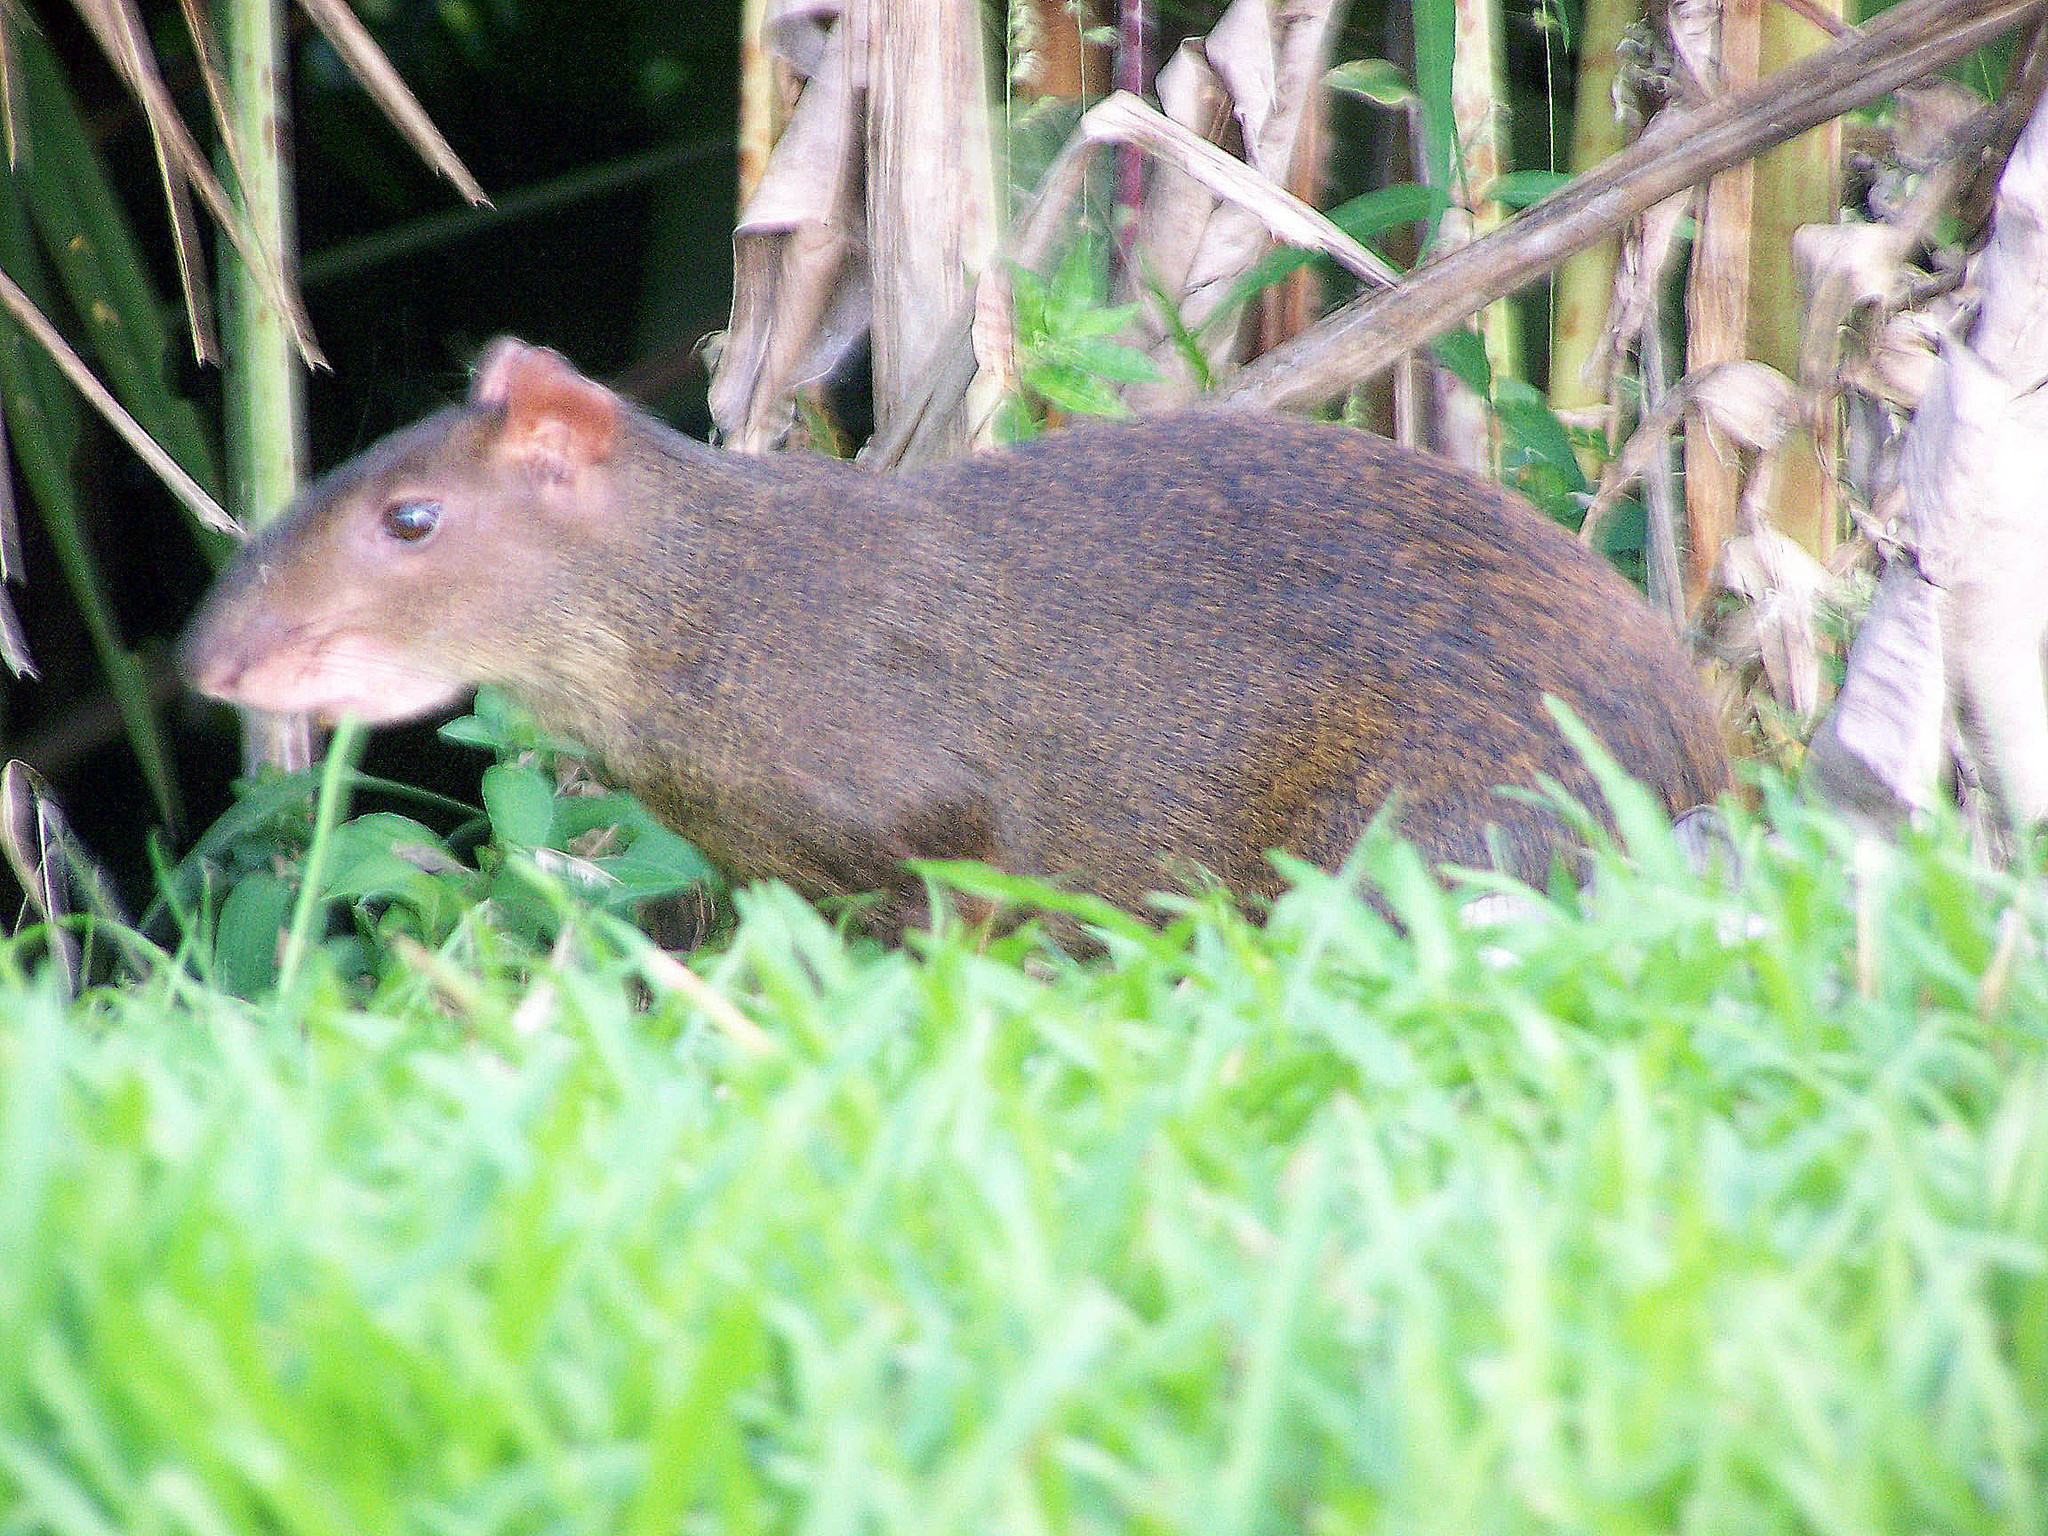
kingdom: Animalia
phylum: Chordata
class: Mammalia
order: Rodentia
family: Dasyproctidae
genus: Dasyprocta
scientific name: Dasyprocta punctata
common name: Central american agouti
